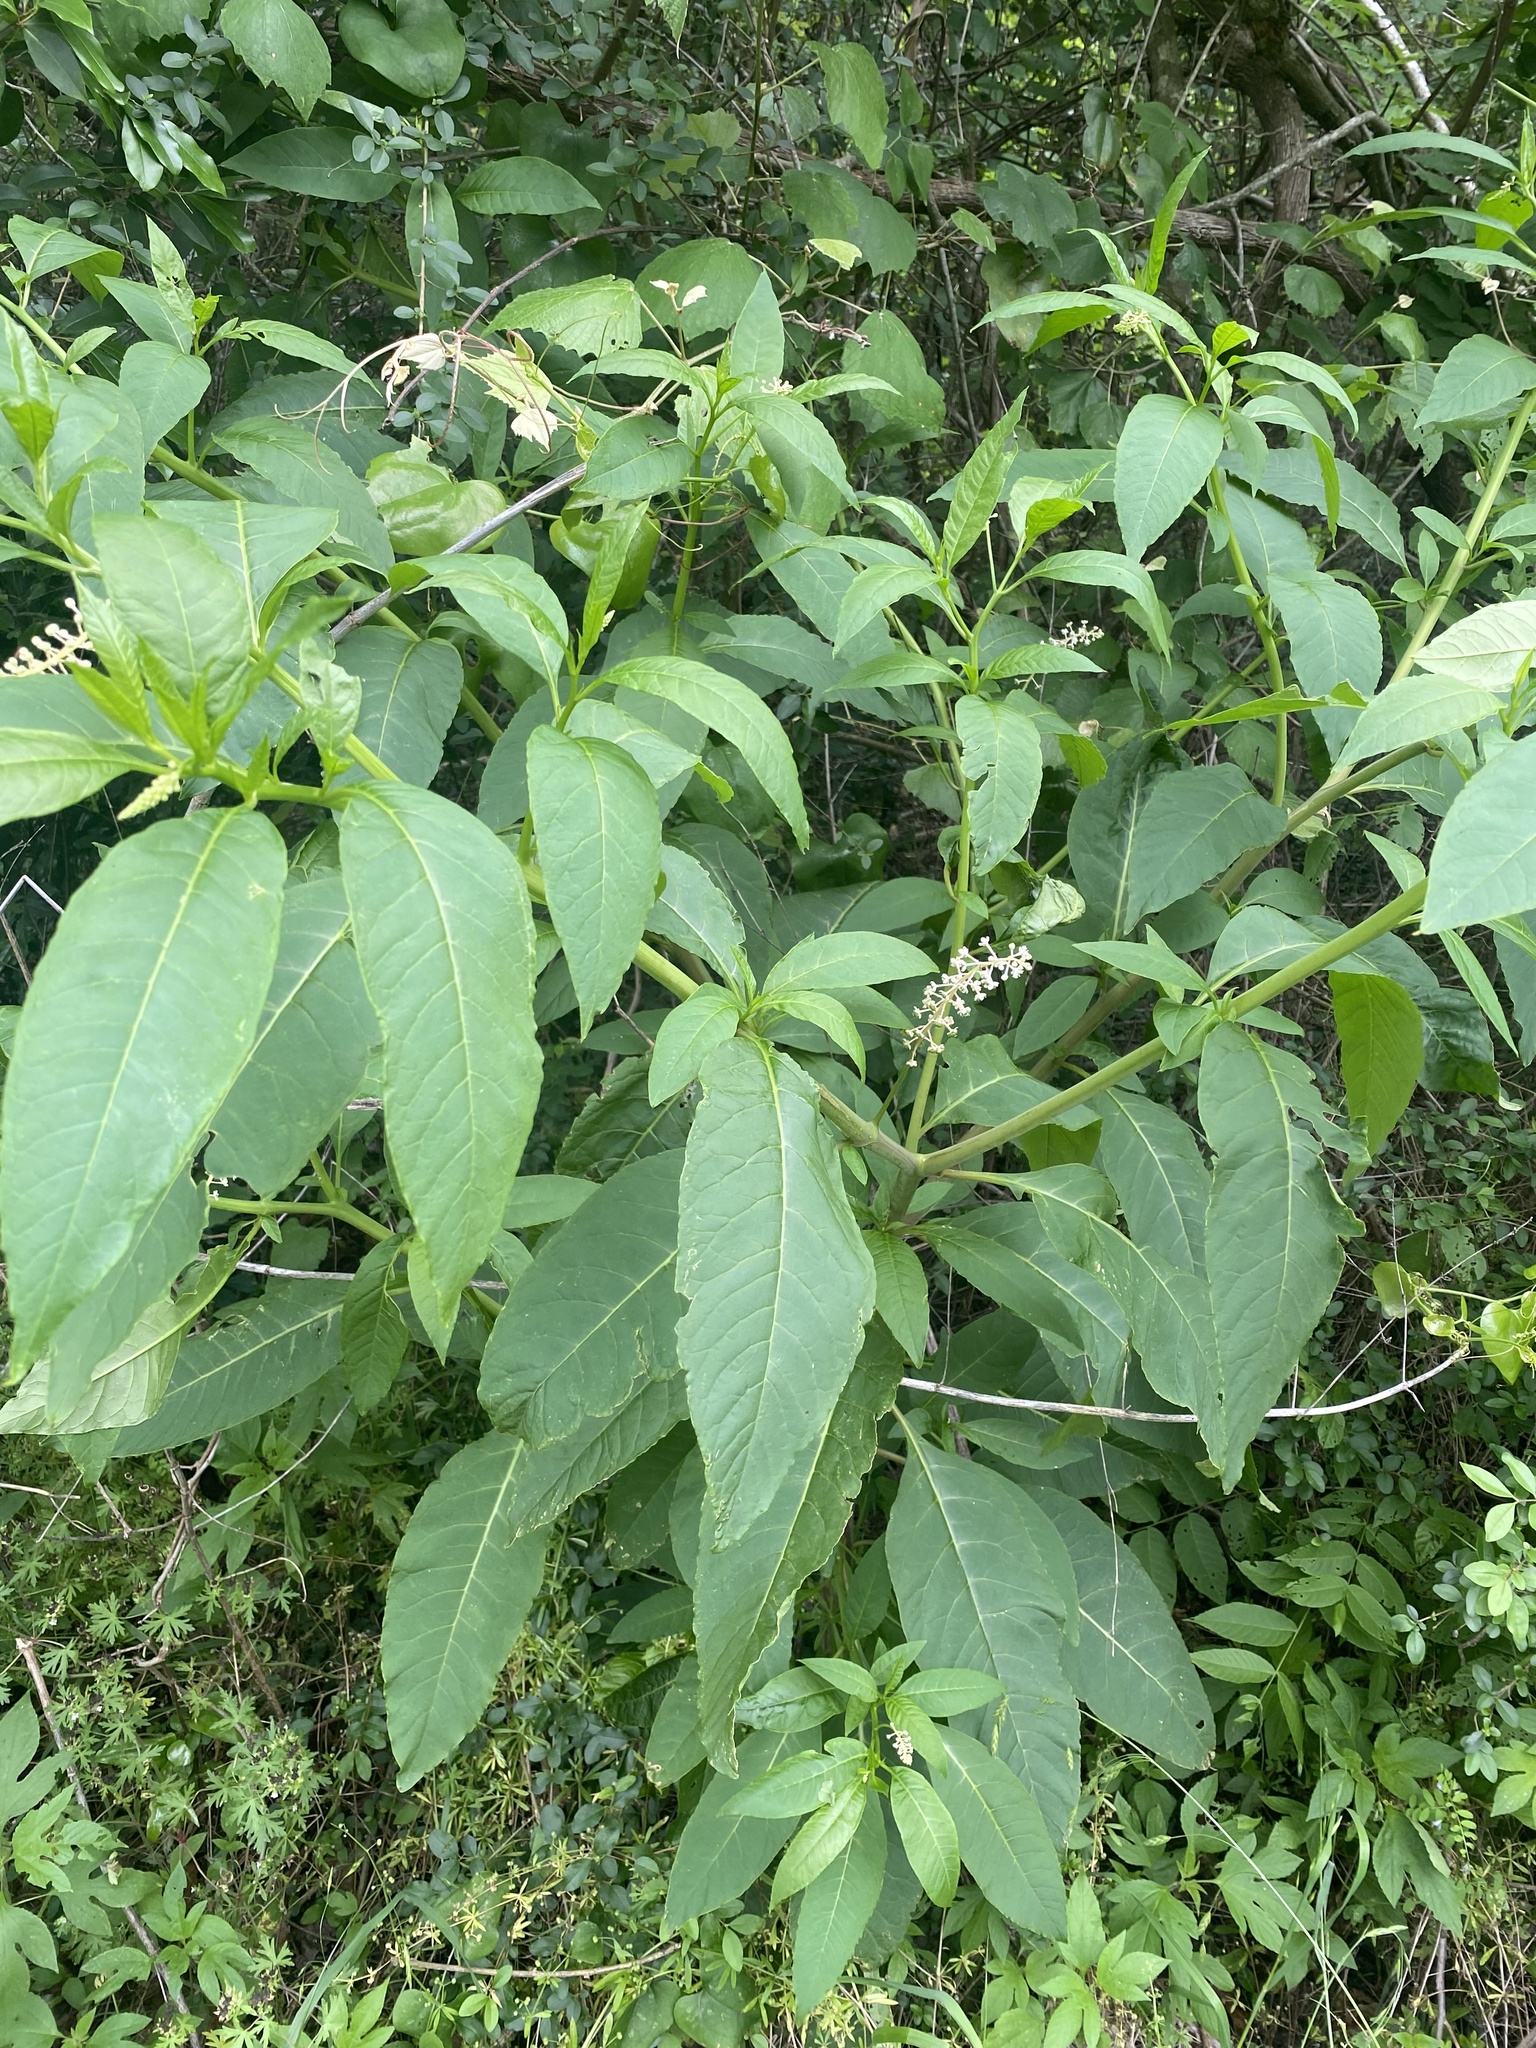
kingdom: Plantae
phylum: Tracheophyta
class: Magnoliopsida
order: Caryophyllales
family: Phytolaccaceae
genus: Phytolacca
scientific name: Phytolacca americana
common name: American pokeweed
